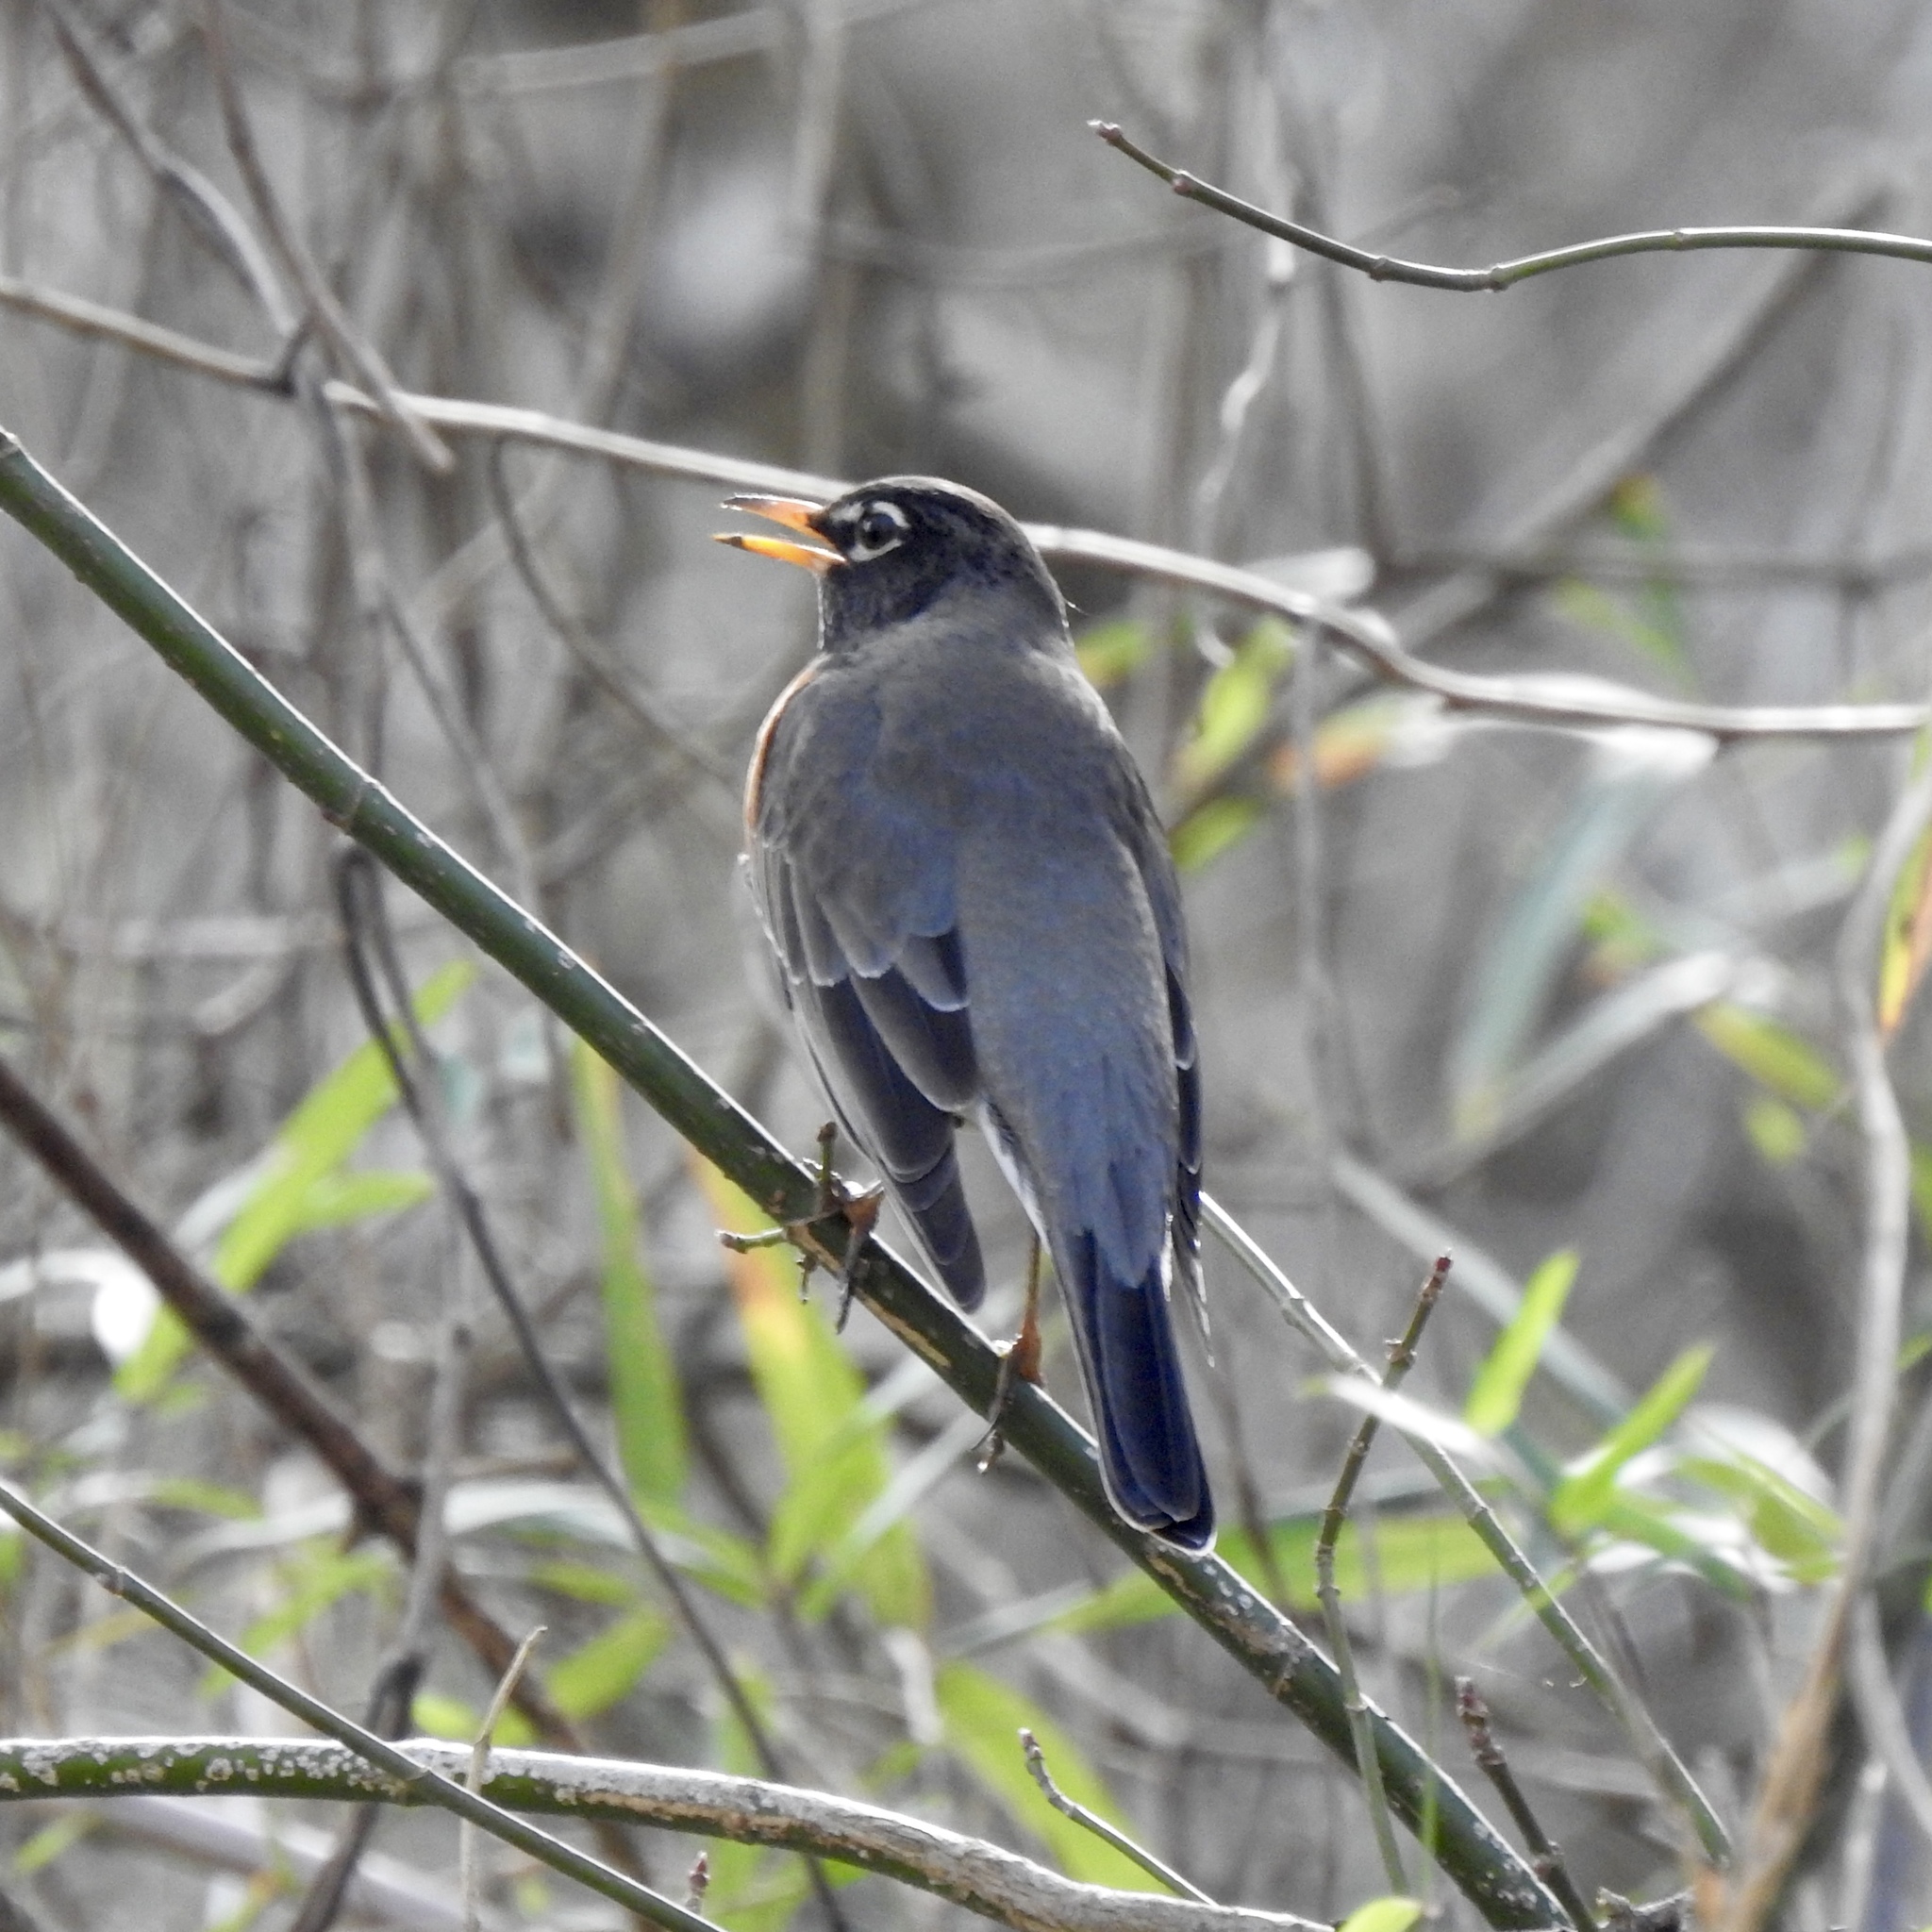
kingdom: Animalia
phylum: Chordata
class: Aves
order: Passeriformes
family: Turdidae
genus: Turdus
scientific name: Turdus migratorius
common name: American robin
